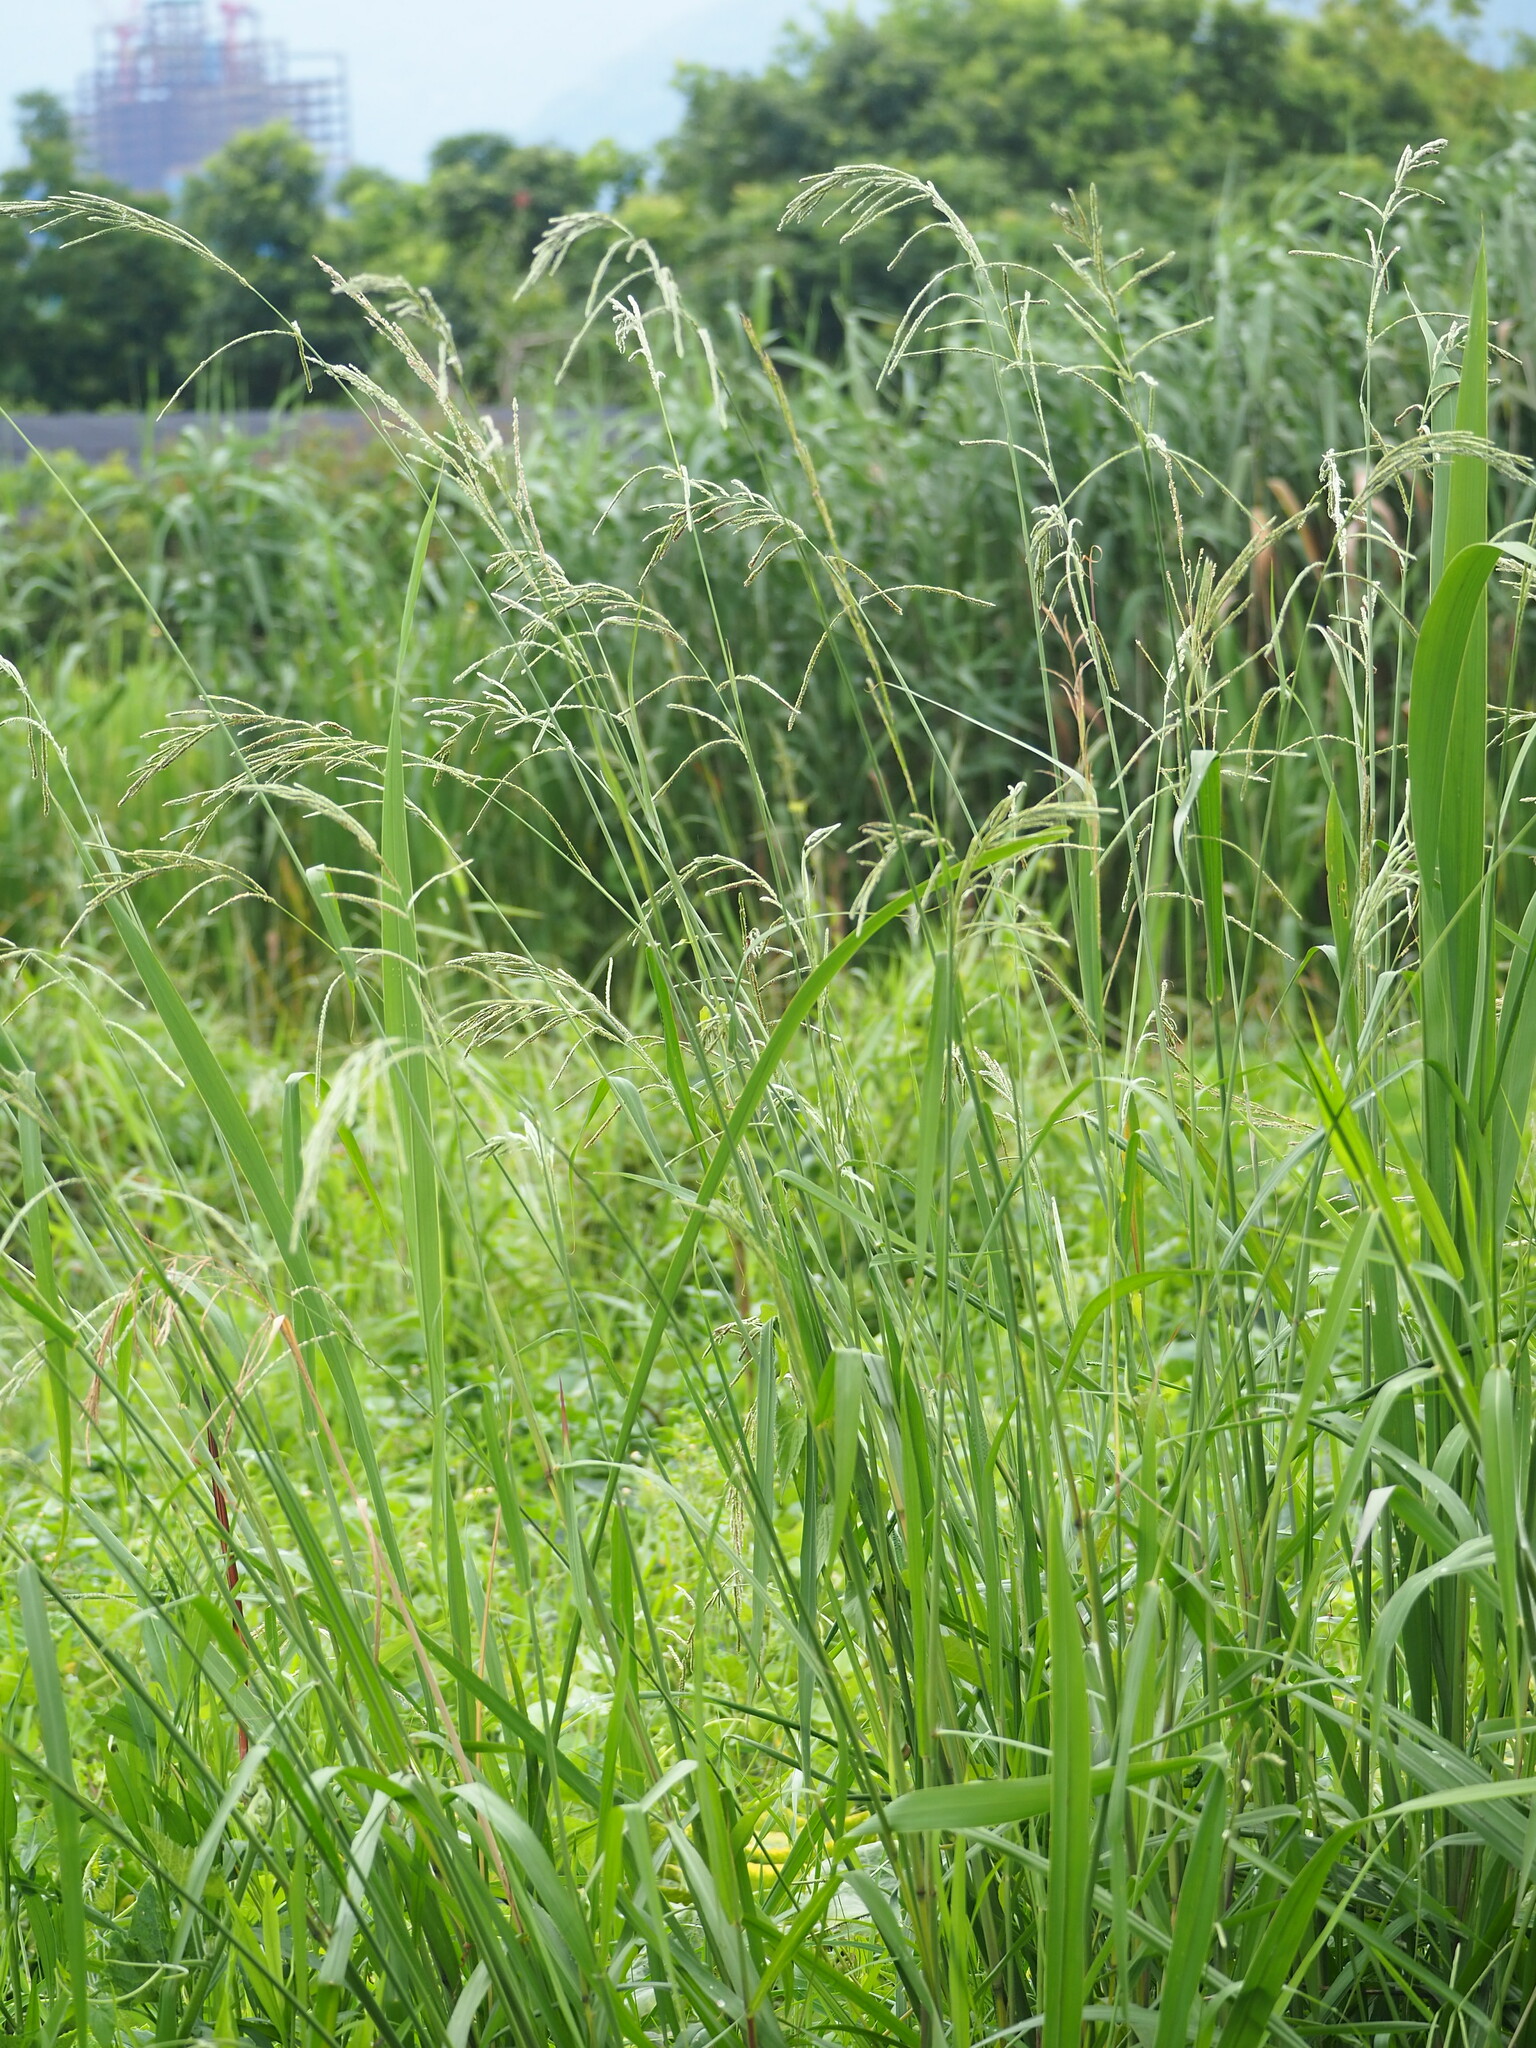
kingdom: Plantae
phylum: Tracheophyta
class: Liliopsida
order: Poales
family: Poaceae
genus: Paspalum
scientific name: Paspalum urvillei
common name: Vasey's grass
